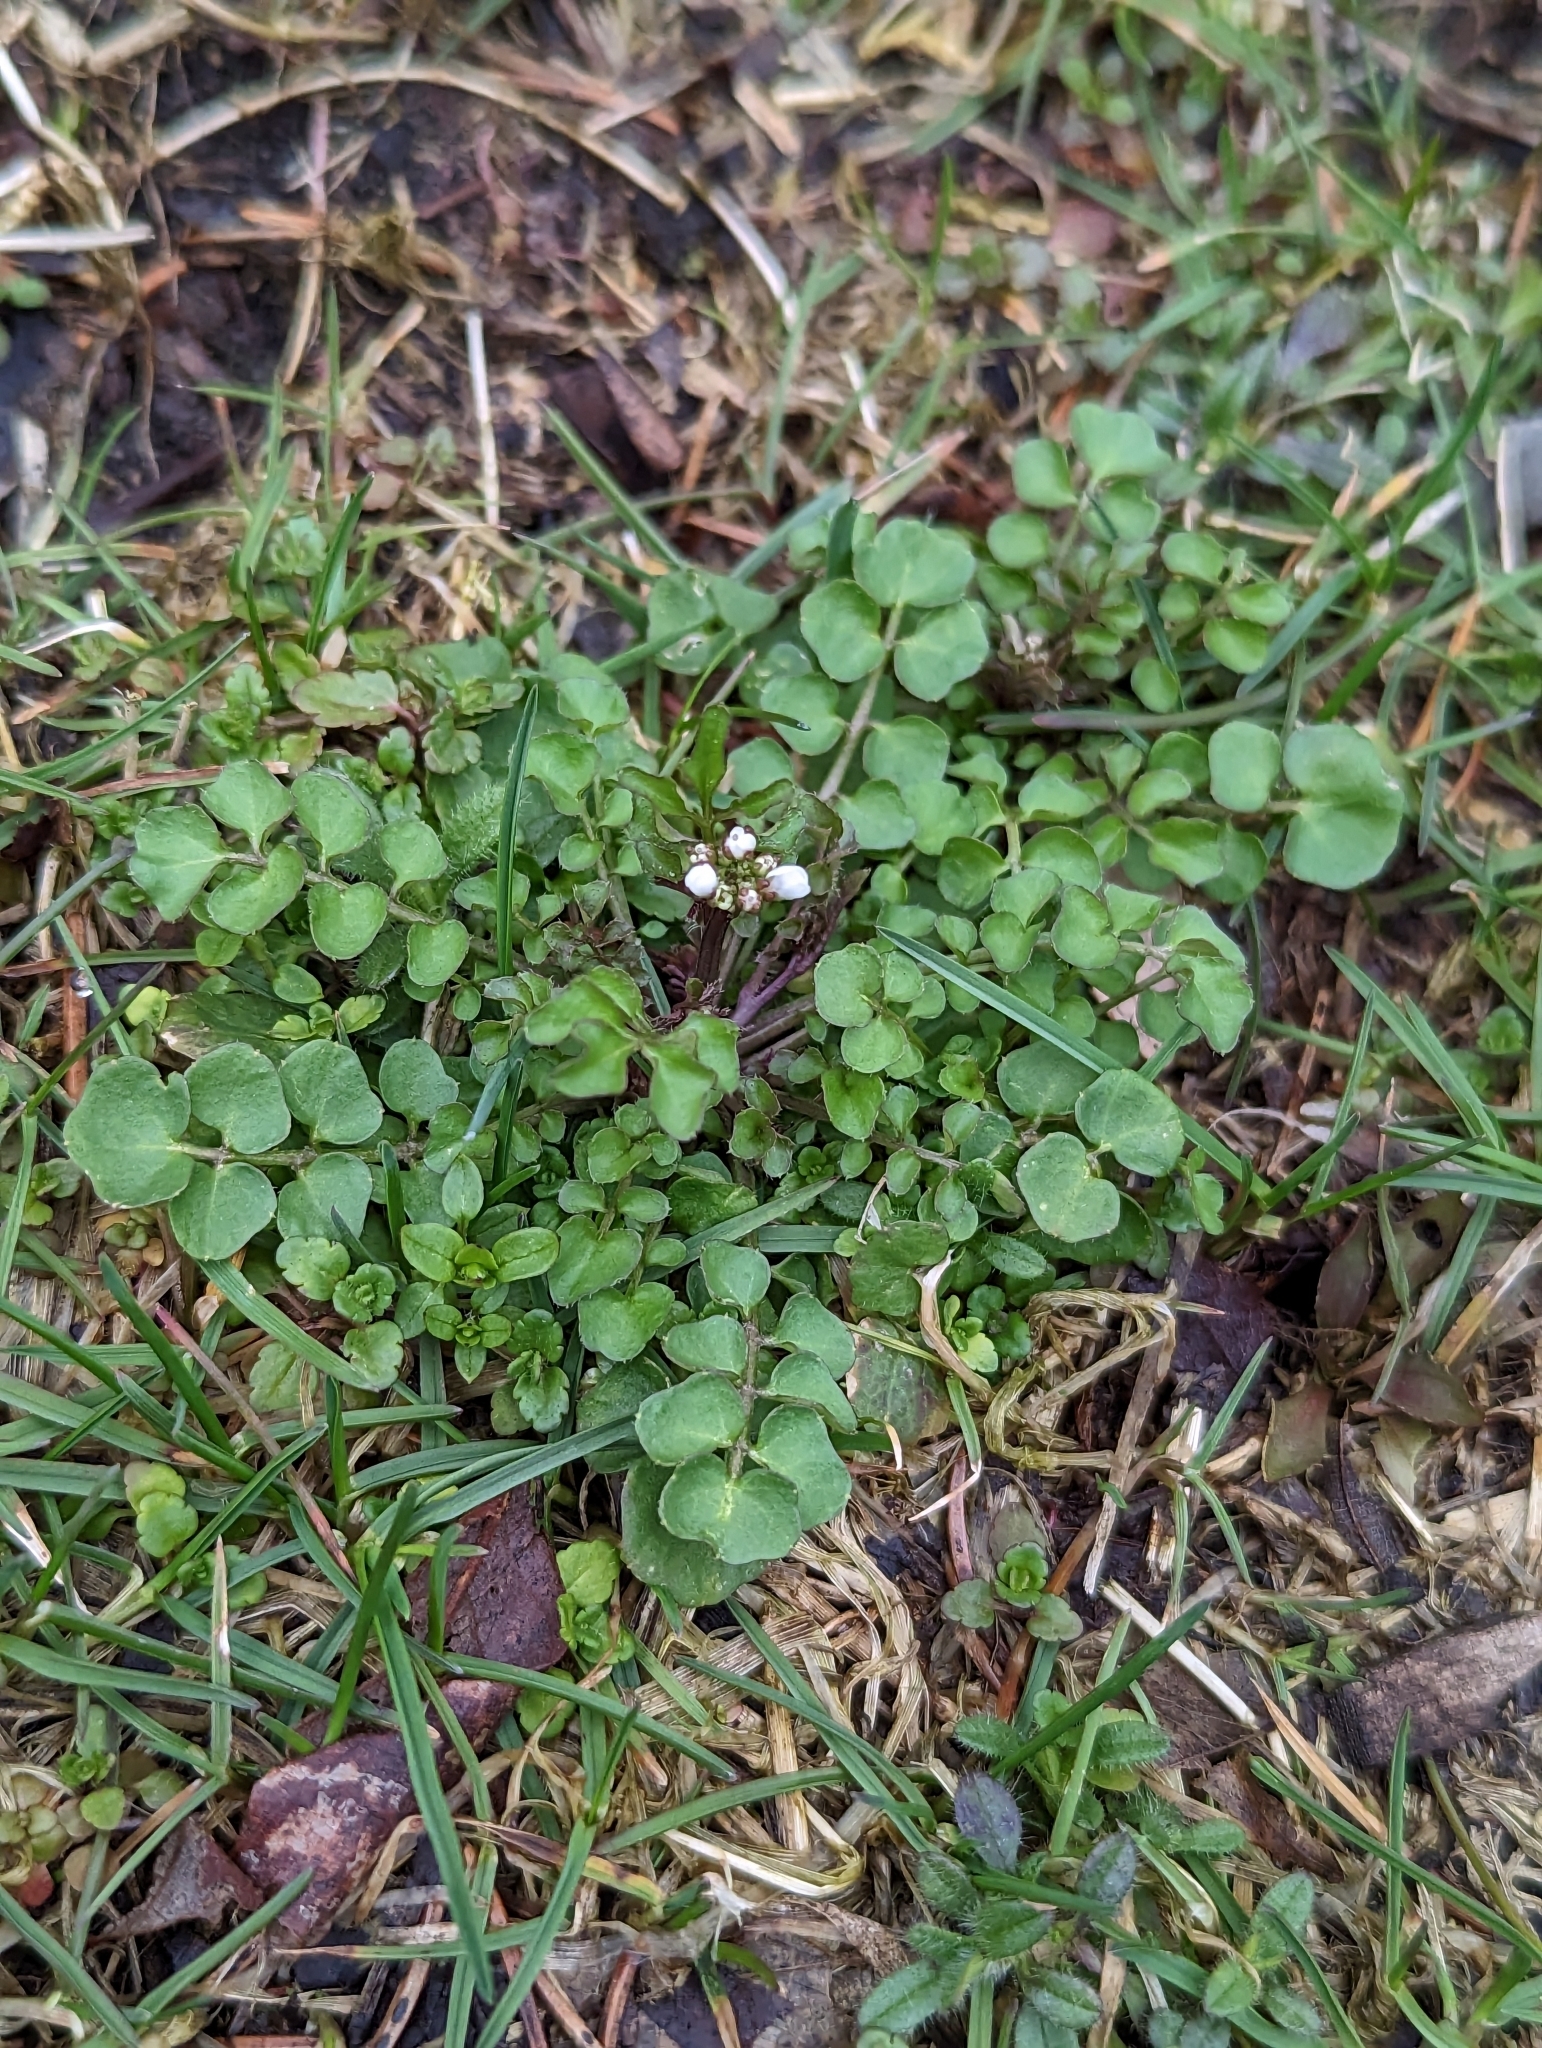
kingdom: Plantae
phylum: Tracheophyta
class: Magnoliopsida
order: Brassicales
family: Brassicaceae
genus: Cardamine
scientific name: Cardamine hirsuta
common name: Hairy bittercress
